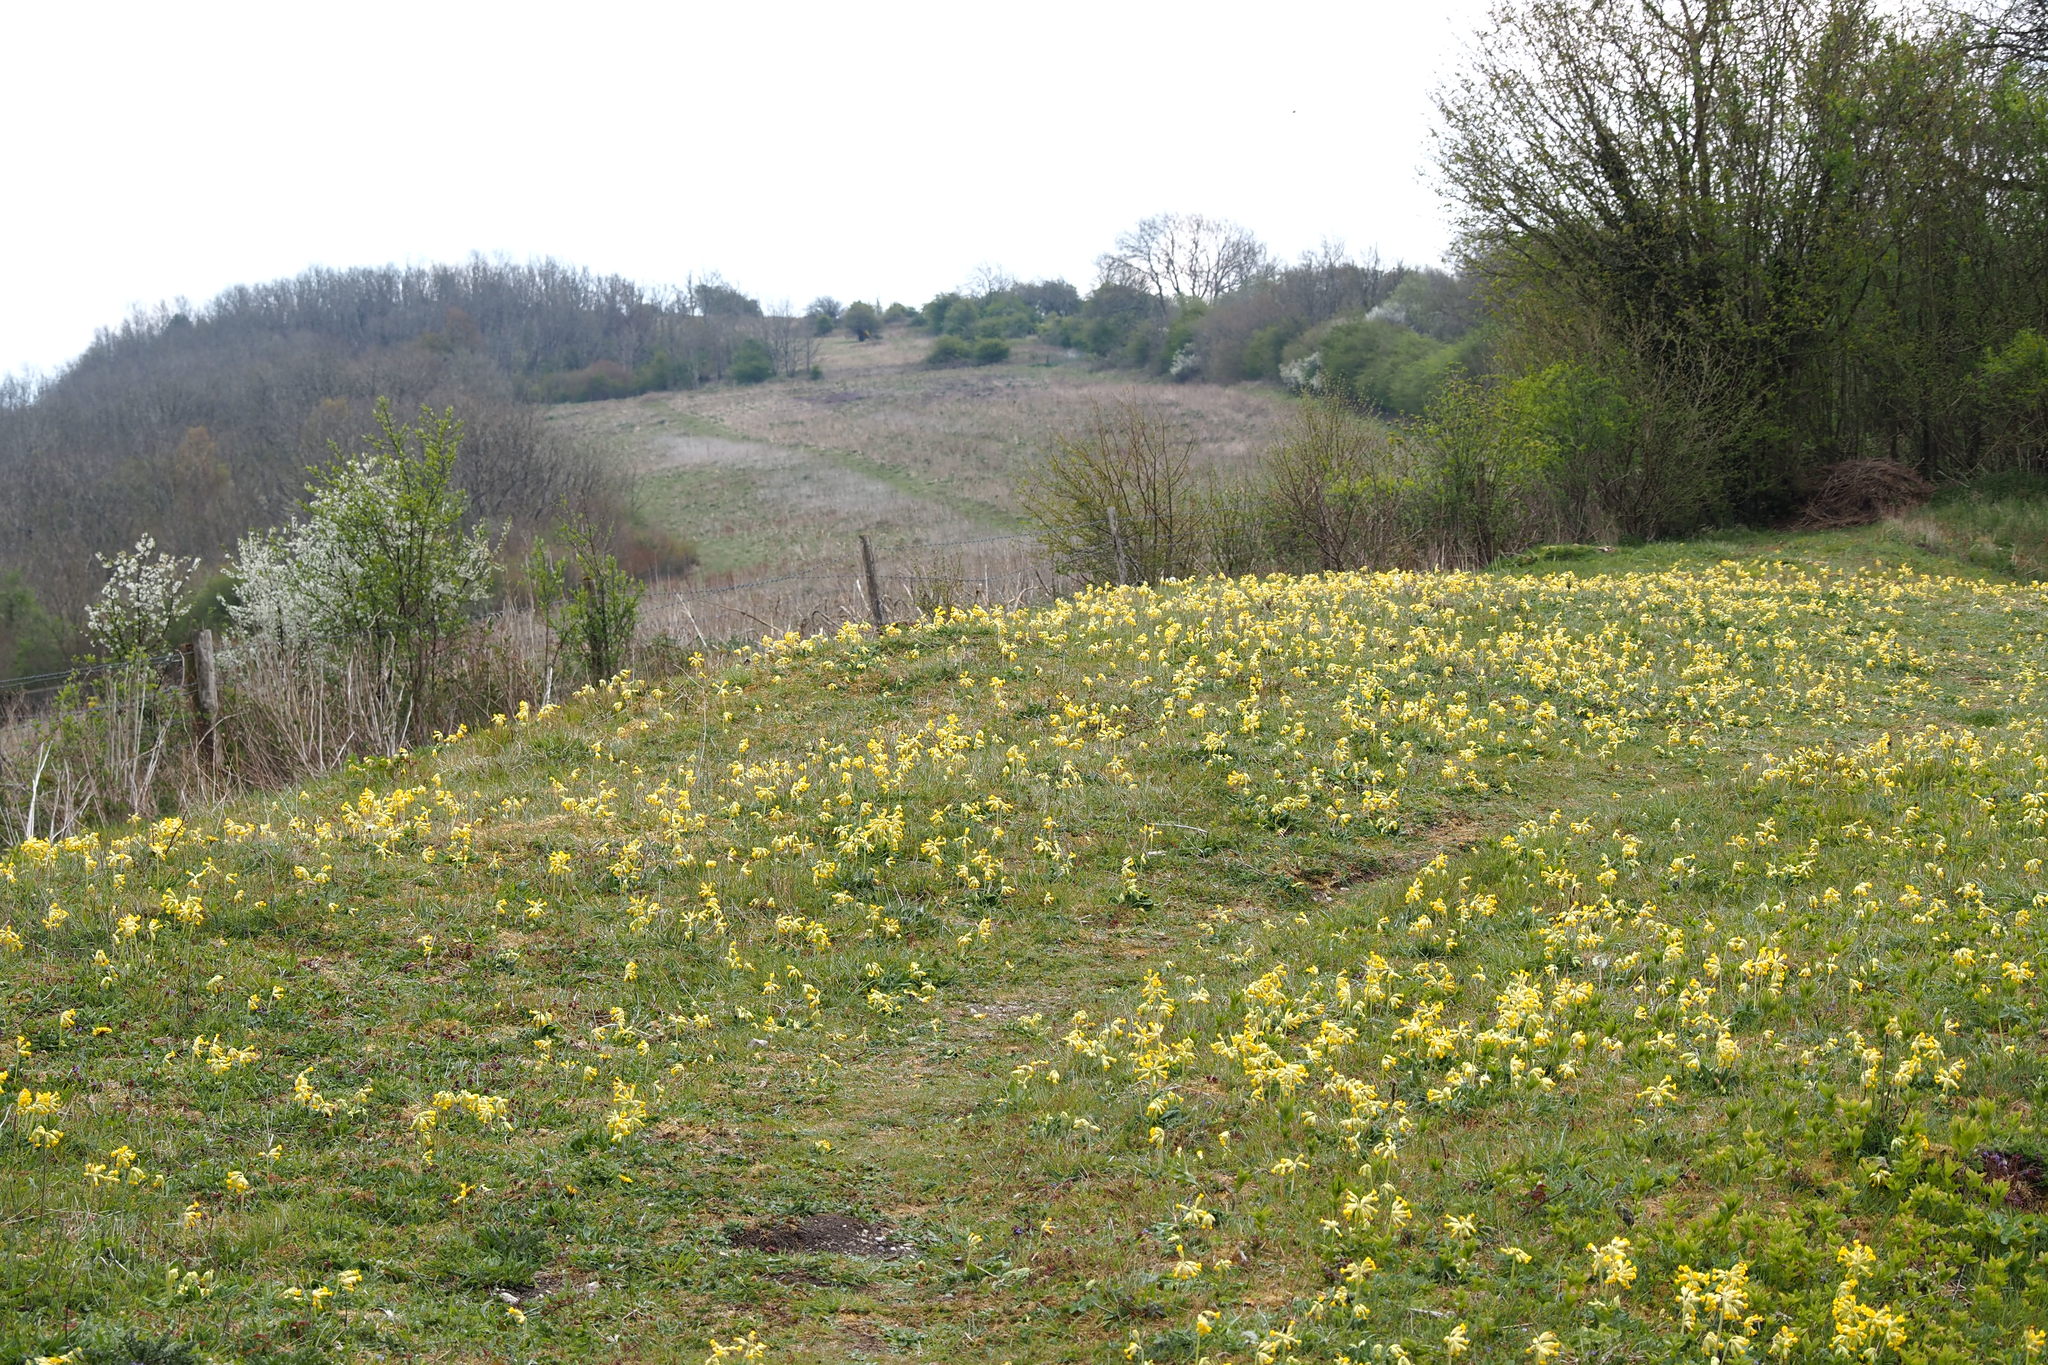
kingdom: Plantae
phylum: Tracheophyta
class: Magnoliopsida
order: Ericales
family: Primulaceae
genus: Primula
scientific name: Primula veris
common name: Cowslip
